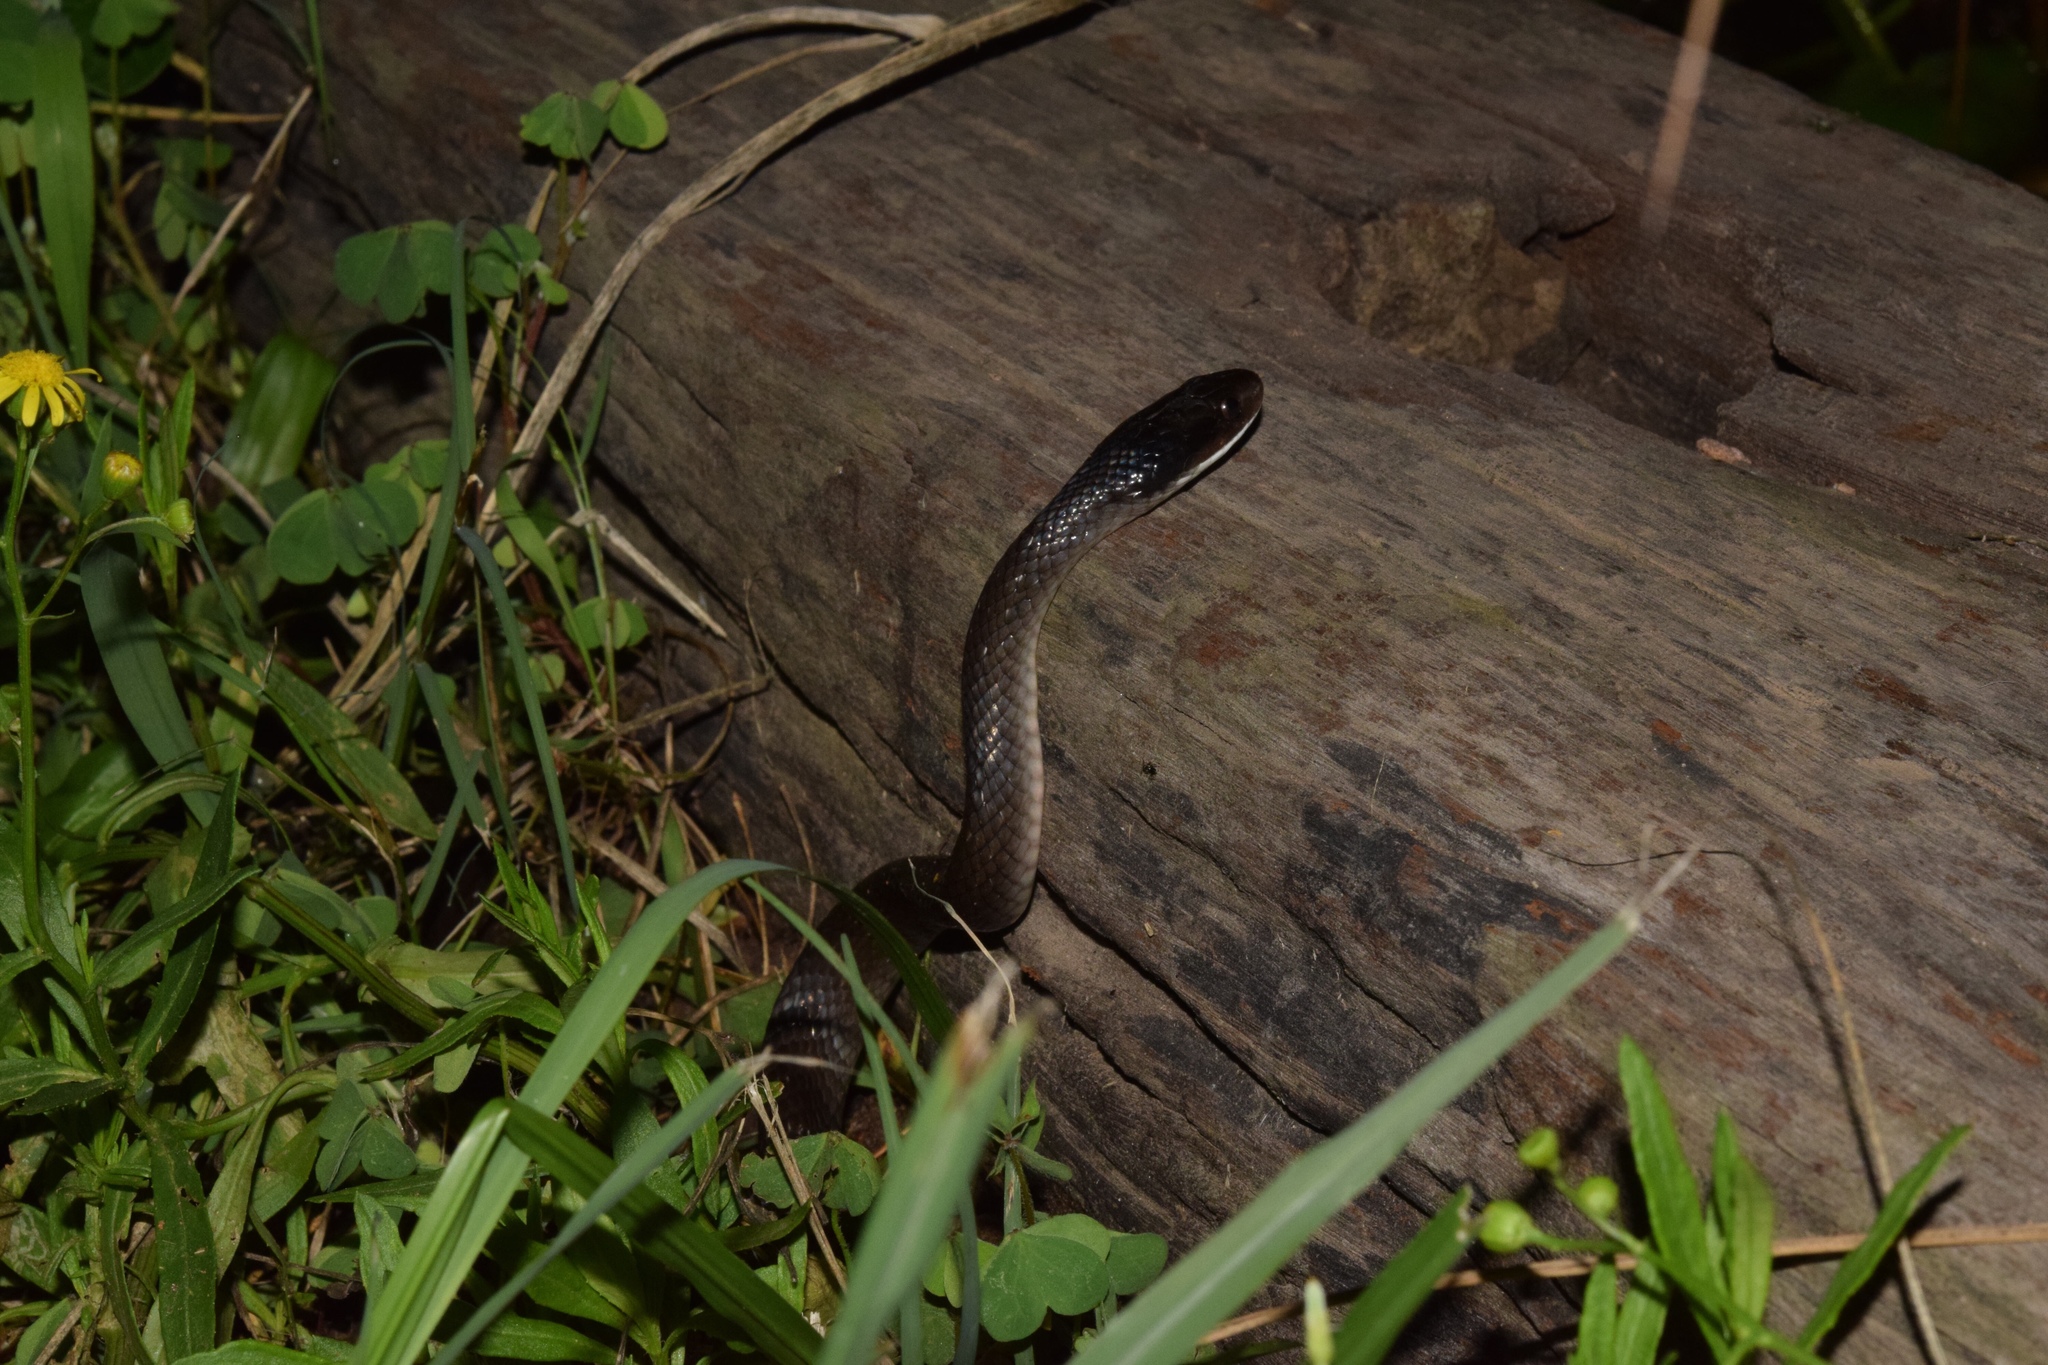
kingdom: Animalia
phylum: Chordata
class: Squamata
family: Colubridae
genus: Crotaphopeltis
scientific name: Crotaphopeltis hotamboeia
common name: Red-lipped snake
